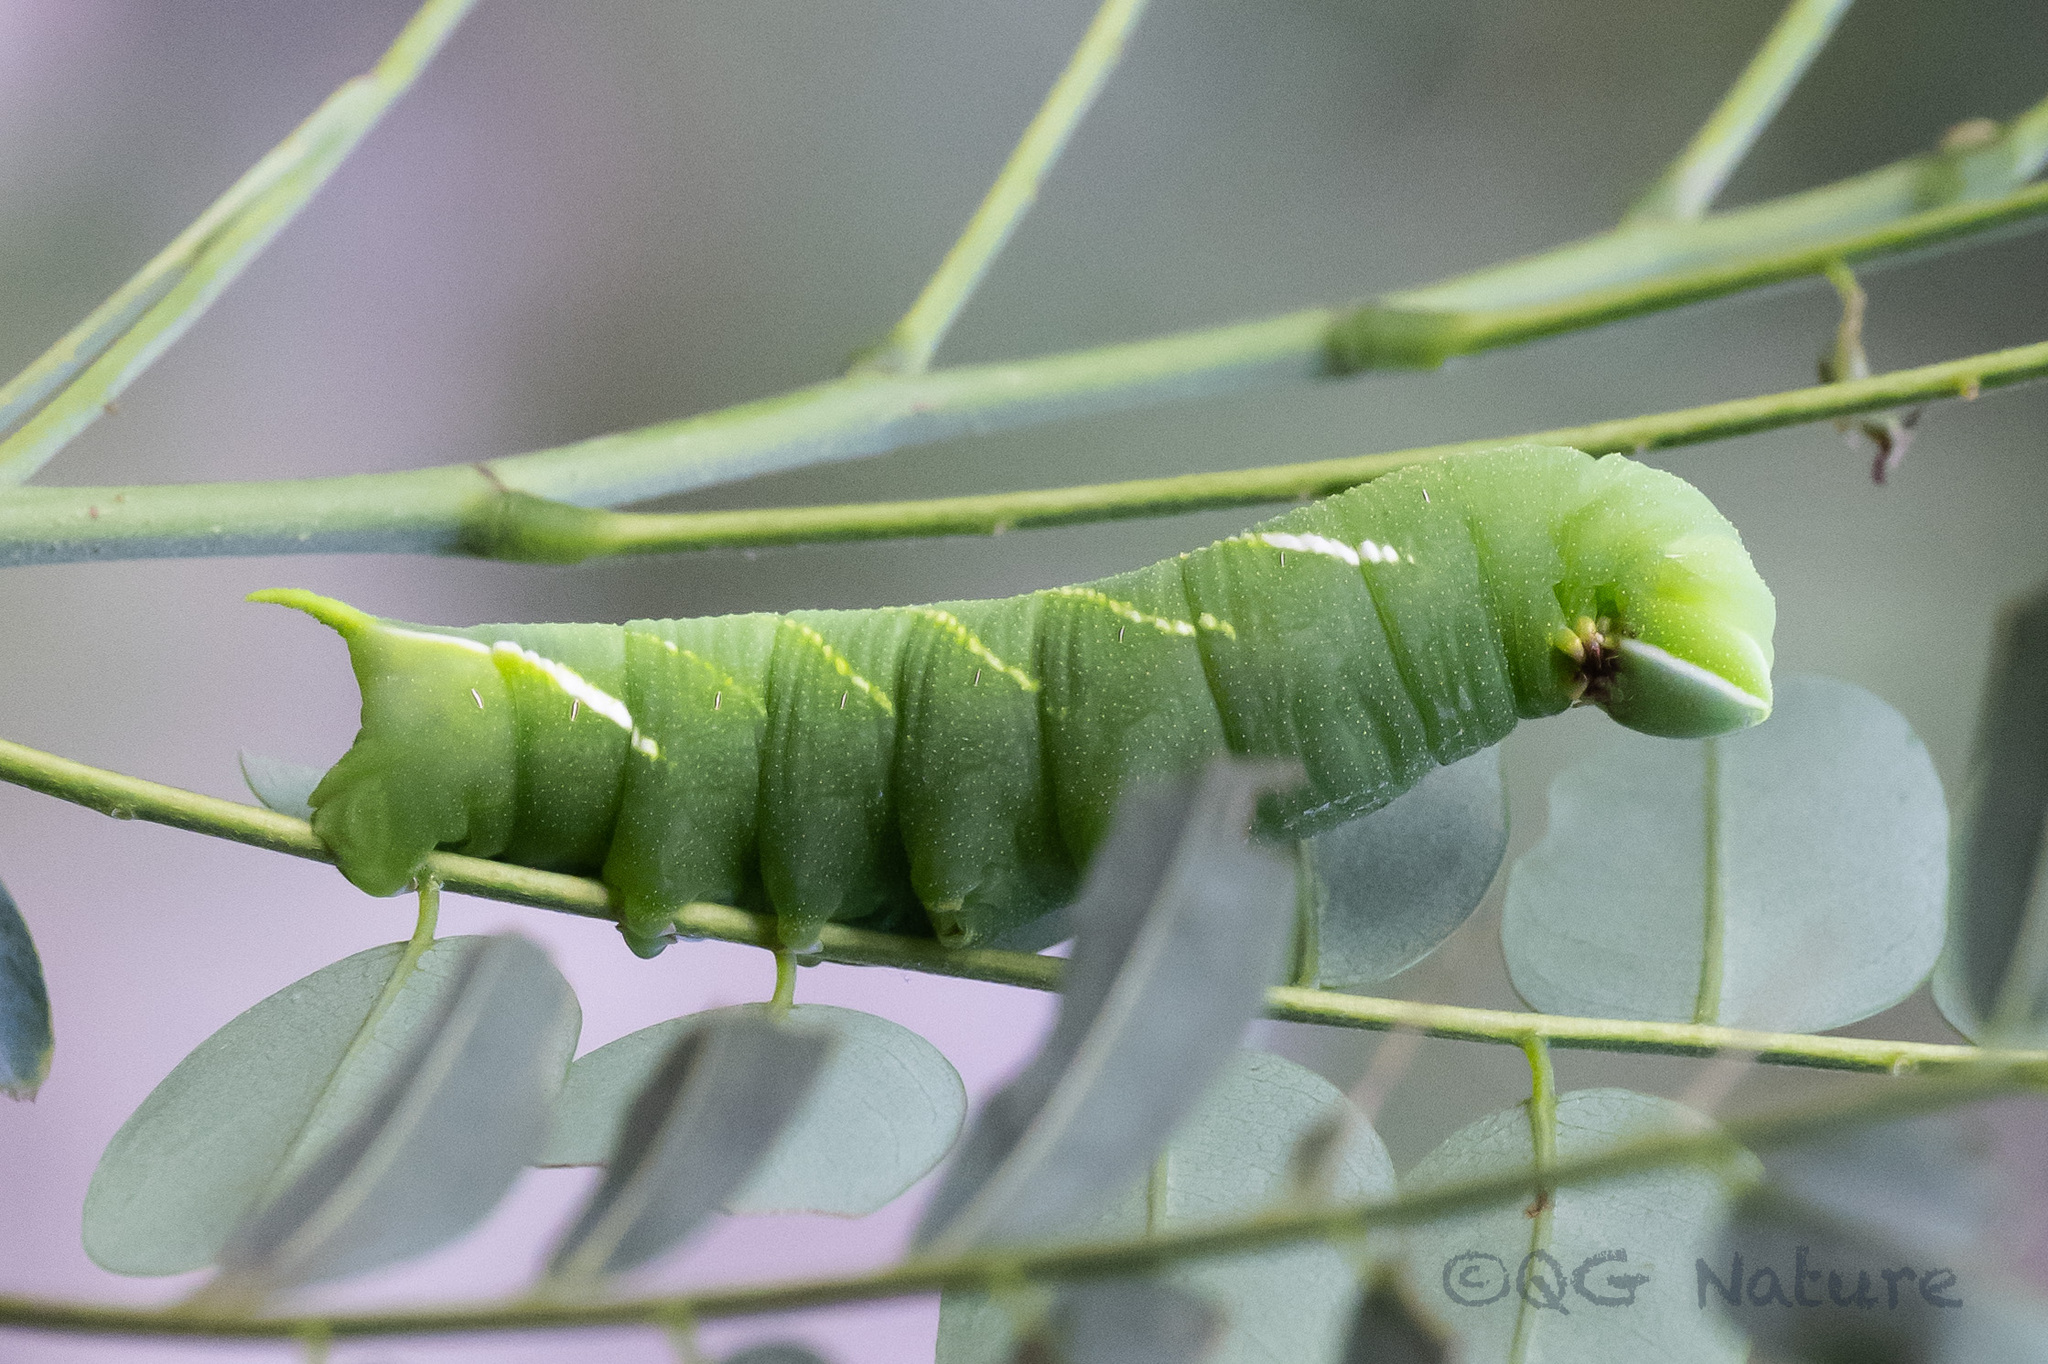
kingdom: Animalia
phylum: Arthropoda
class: Insecta
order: Lepidoptera
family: Sphingidae
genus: Sataspes
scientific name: Sataspes tagalica
